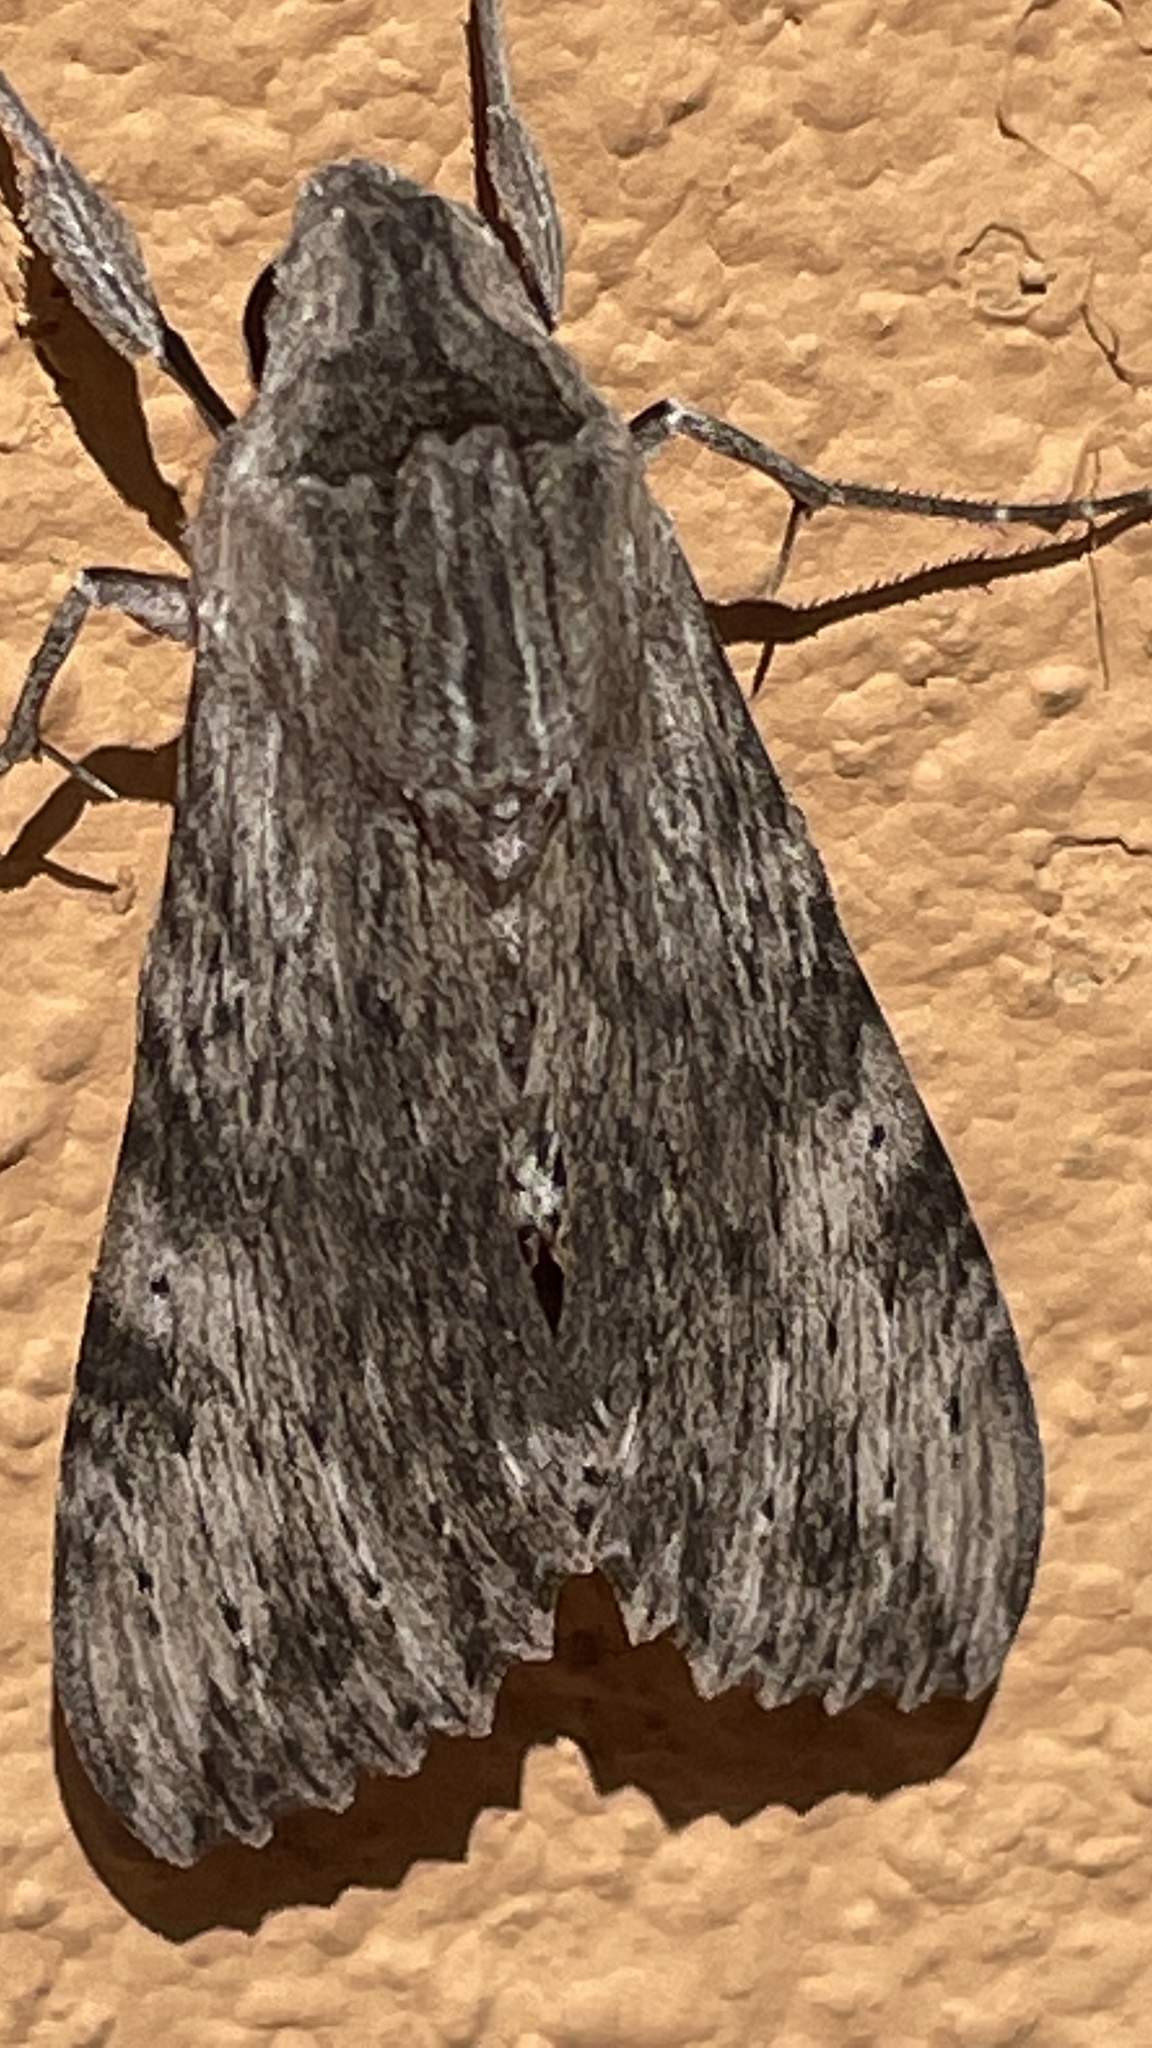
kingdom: Animalia
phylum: Arthropoda
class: Insecta
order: Lepidoptera
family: Sphingidae
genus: Erinnyis
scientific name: Erinnyis obscura
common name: Obscure sphinx
